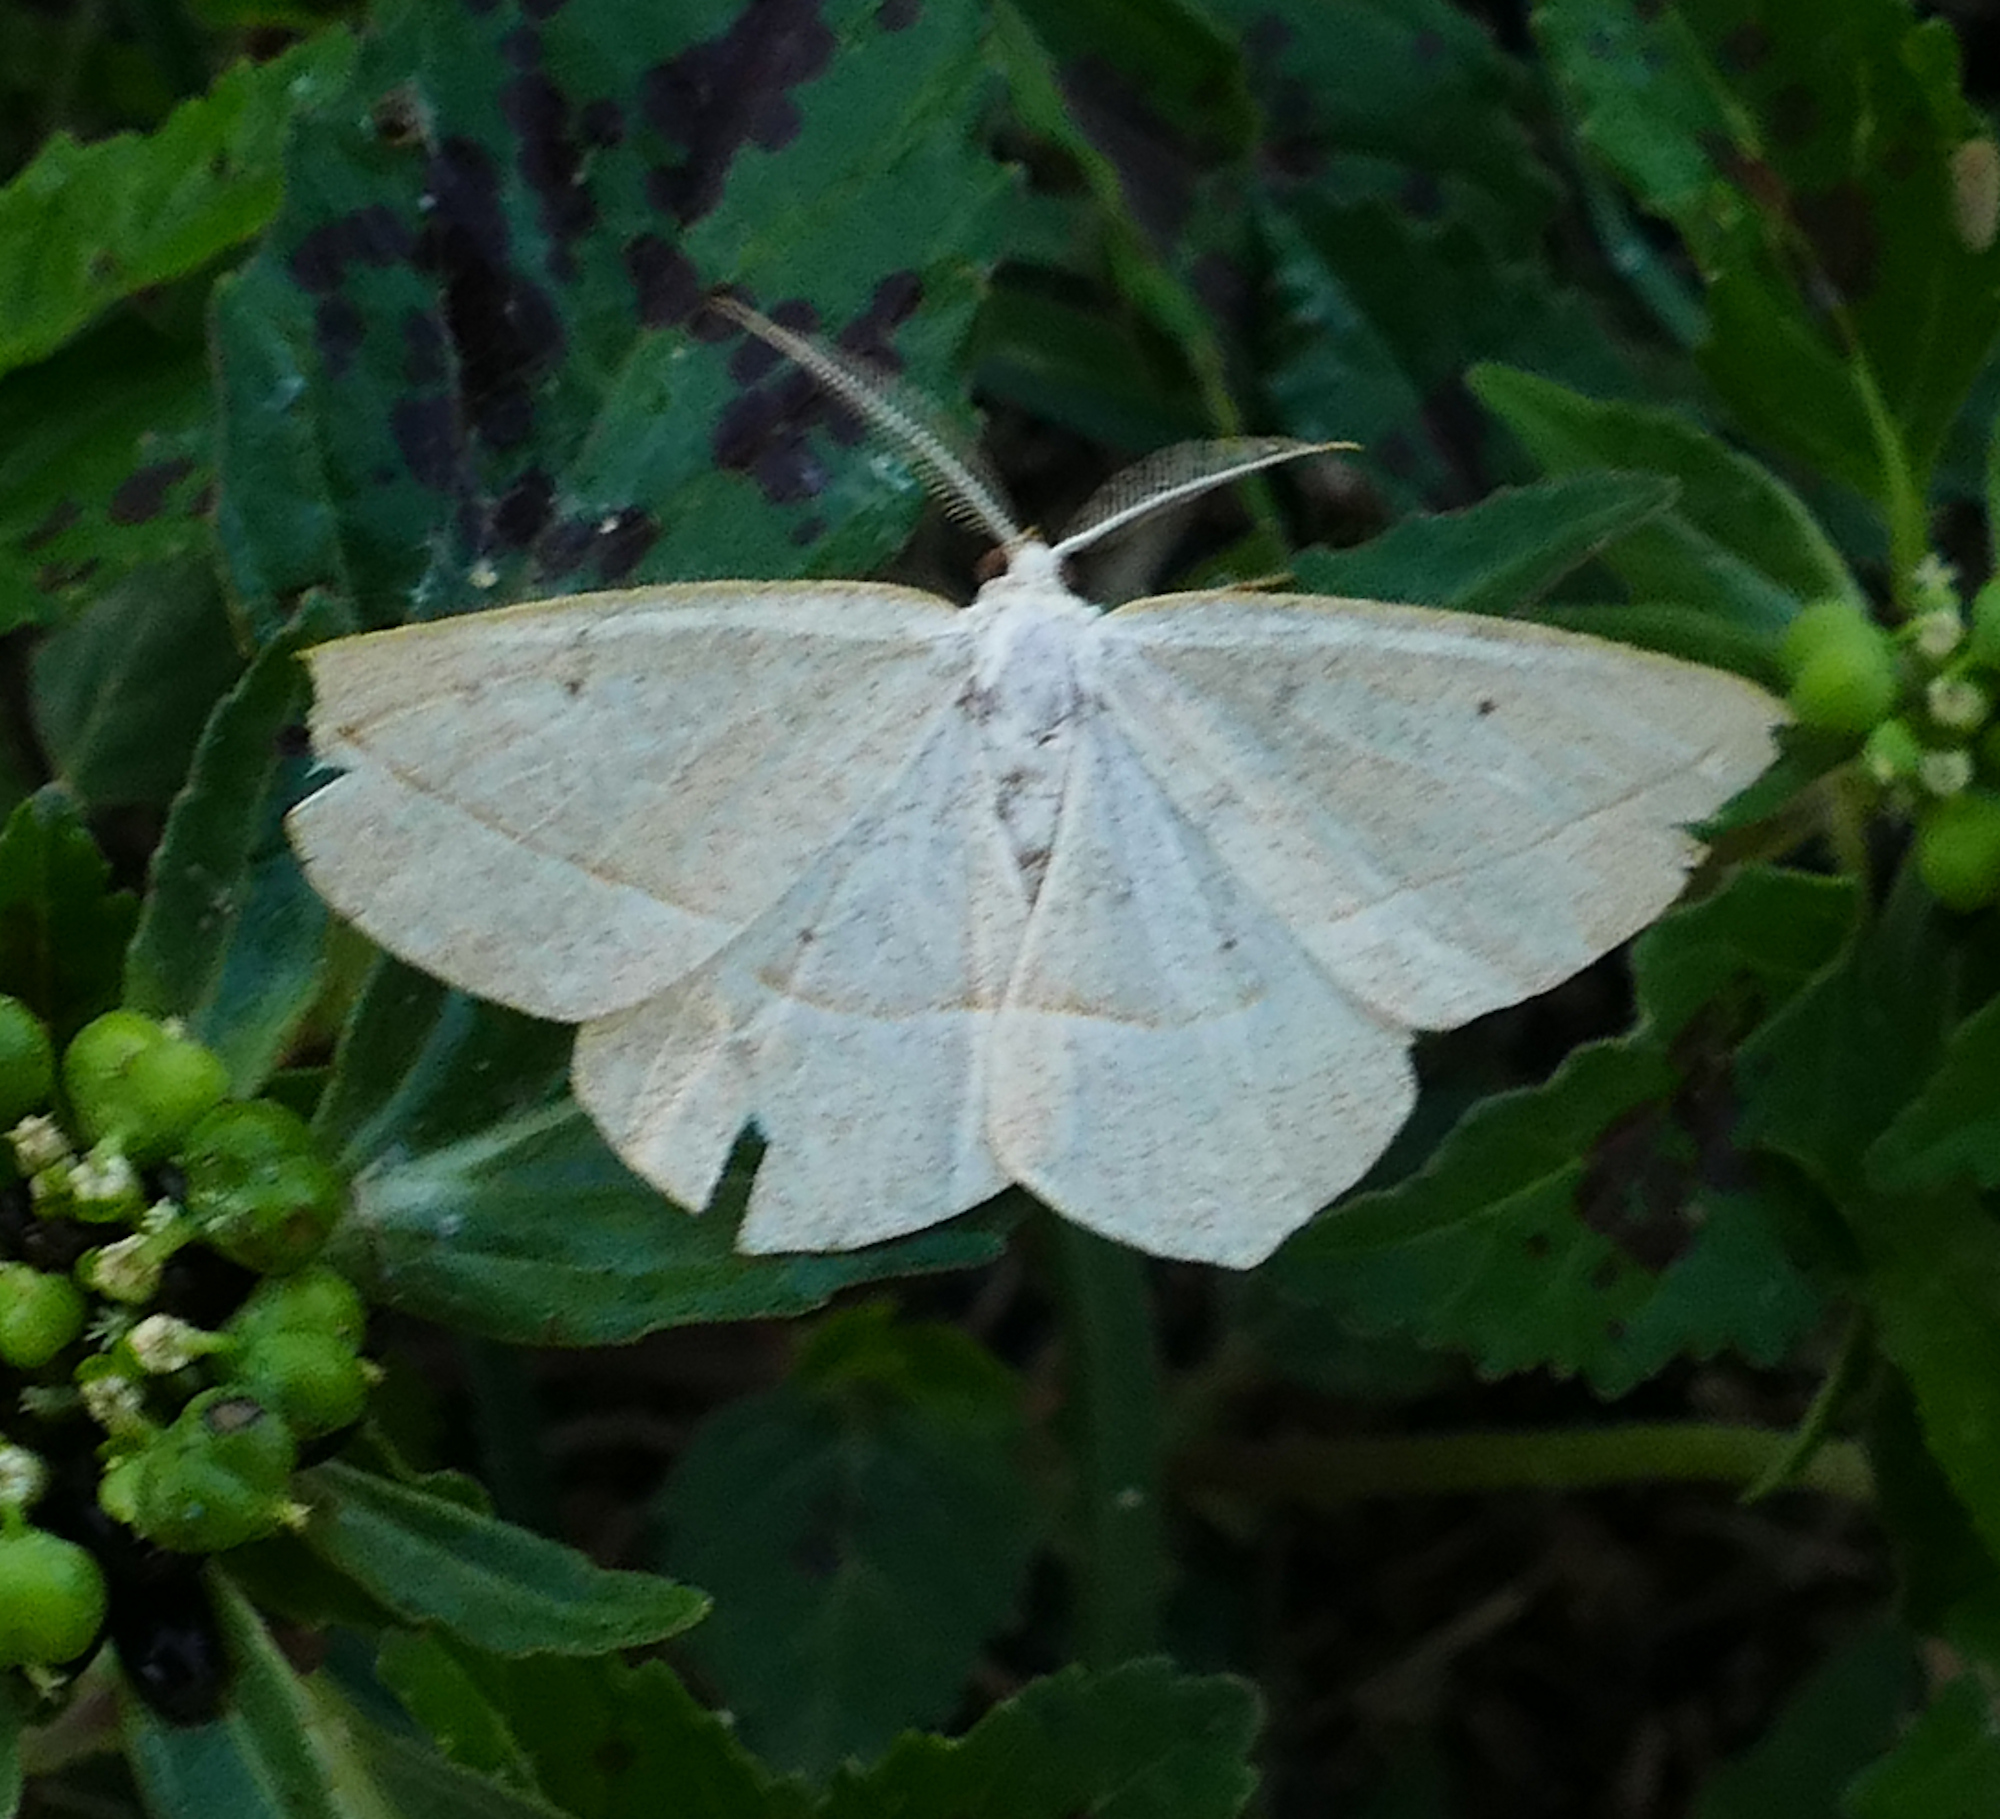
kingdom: Animalia
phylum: Arthropoda
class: Insecta
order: Lepidoptera
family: Geometridae
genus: Eusarca
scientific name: Eusarca confusaria
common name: Confused eusarca
